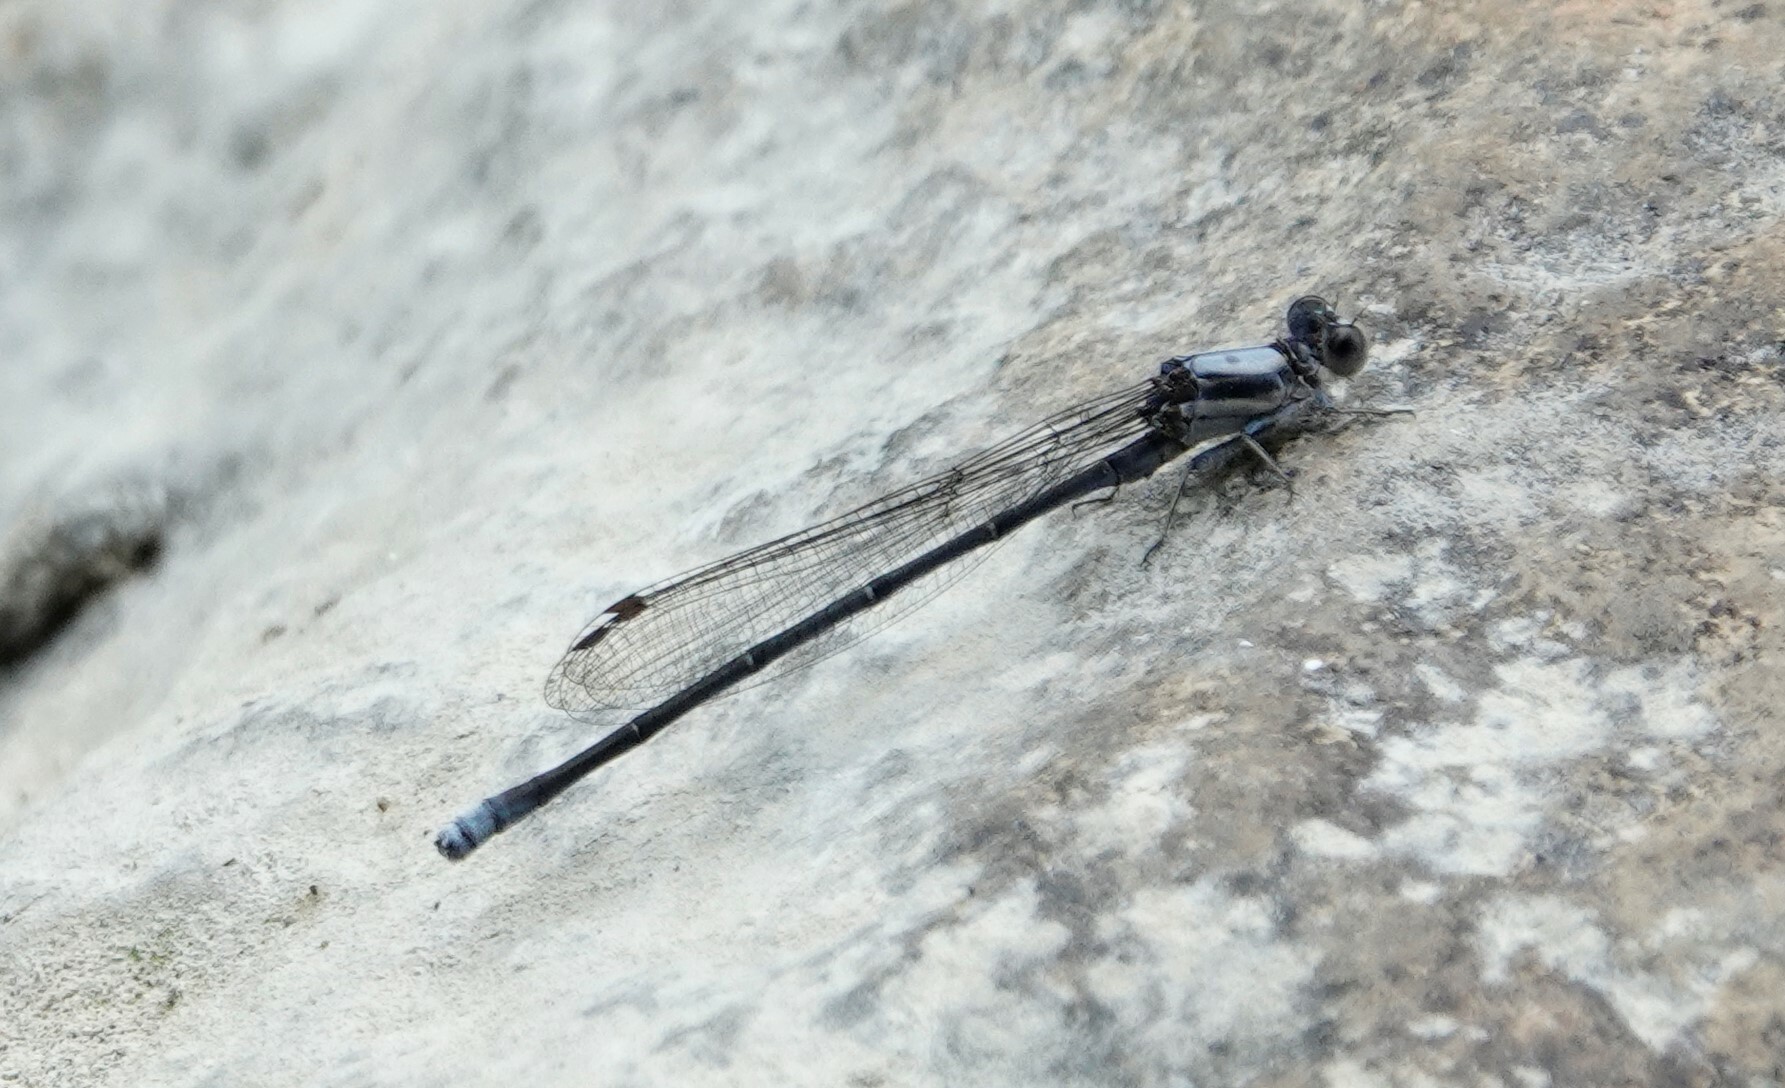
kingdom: Animalia
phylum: Arthropoda
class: Insecta
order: Odonata
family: Coenagrionidae
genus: Argia
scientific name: Argia moesta
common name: Powdered dancer
